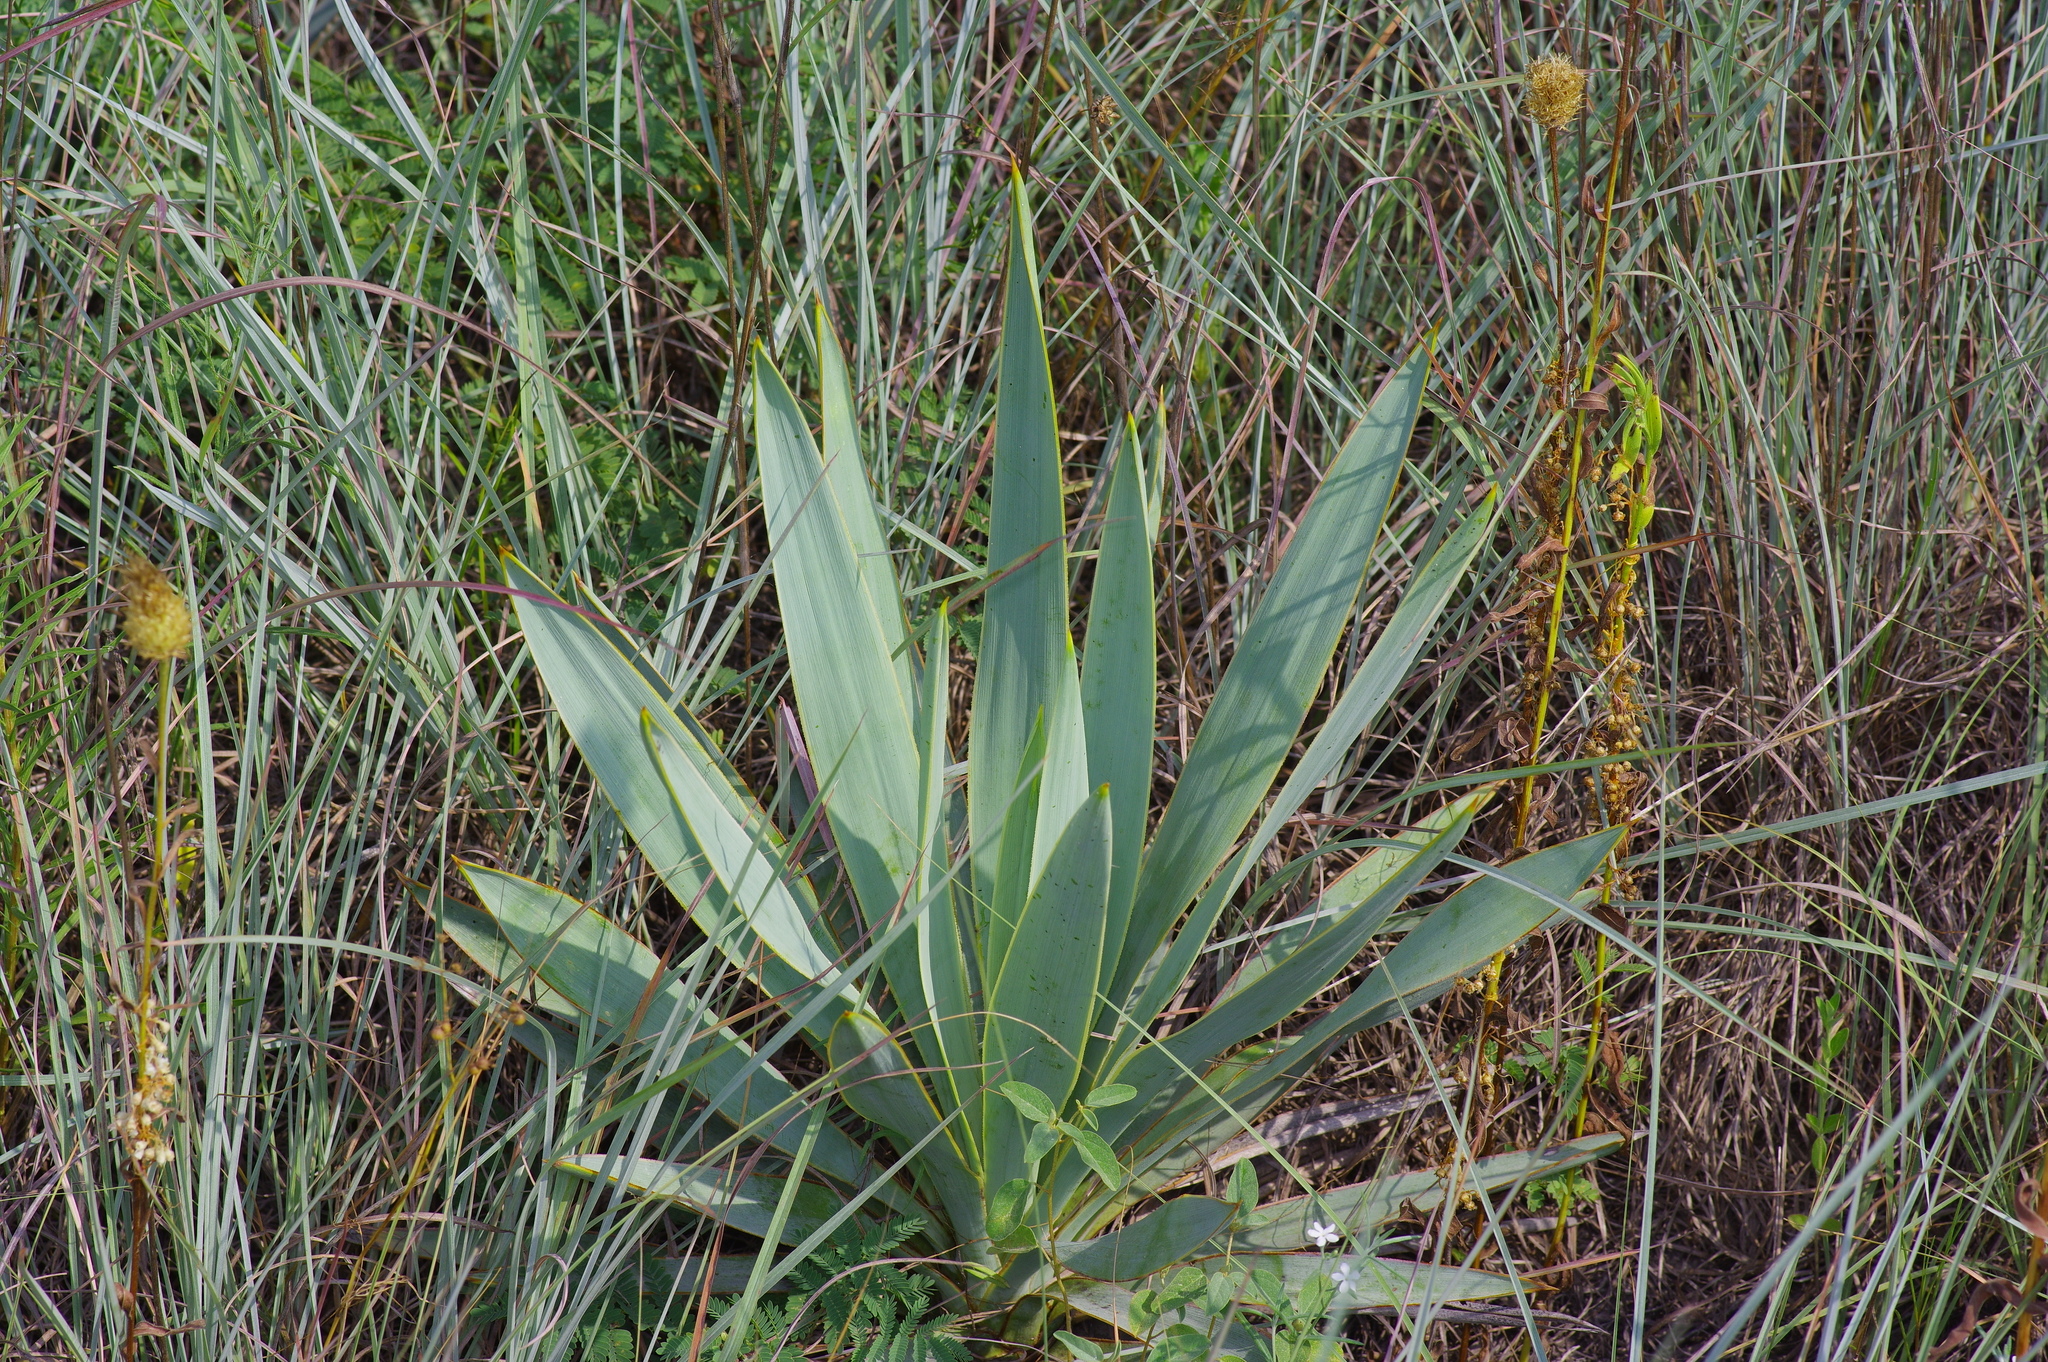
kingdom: Plantae
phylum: Tracheophyta
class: Liliopsida
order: Asparagales
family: Asparagaceae
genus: Yucca
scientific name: Yucca pallida
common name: Pale leaf yucca
